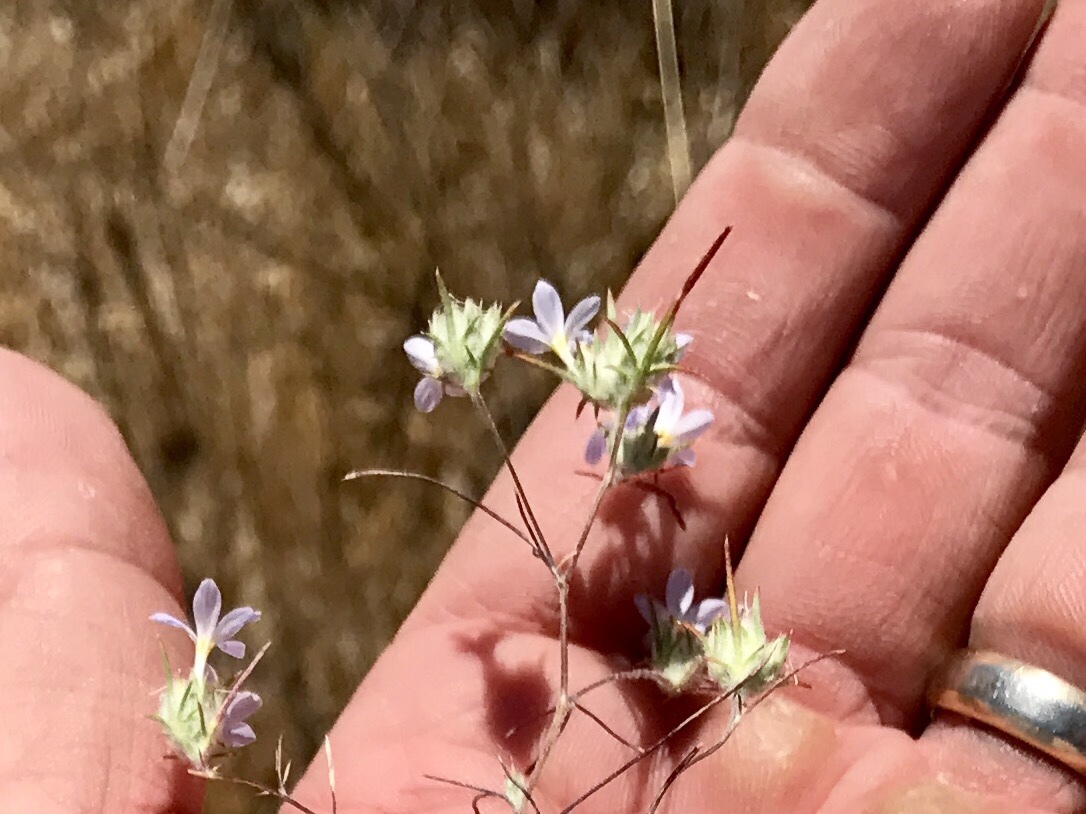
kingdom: Plantae
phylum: Tracheophyta
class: Magnoliopsida
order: Ericales
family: Polemoniaceae
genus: Eriastrum
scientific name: Eriastrum diffusum
